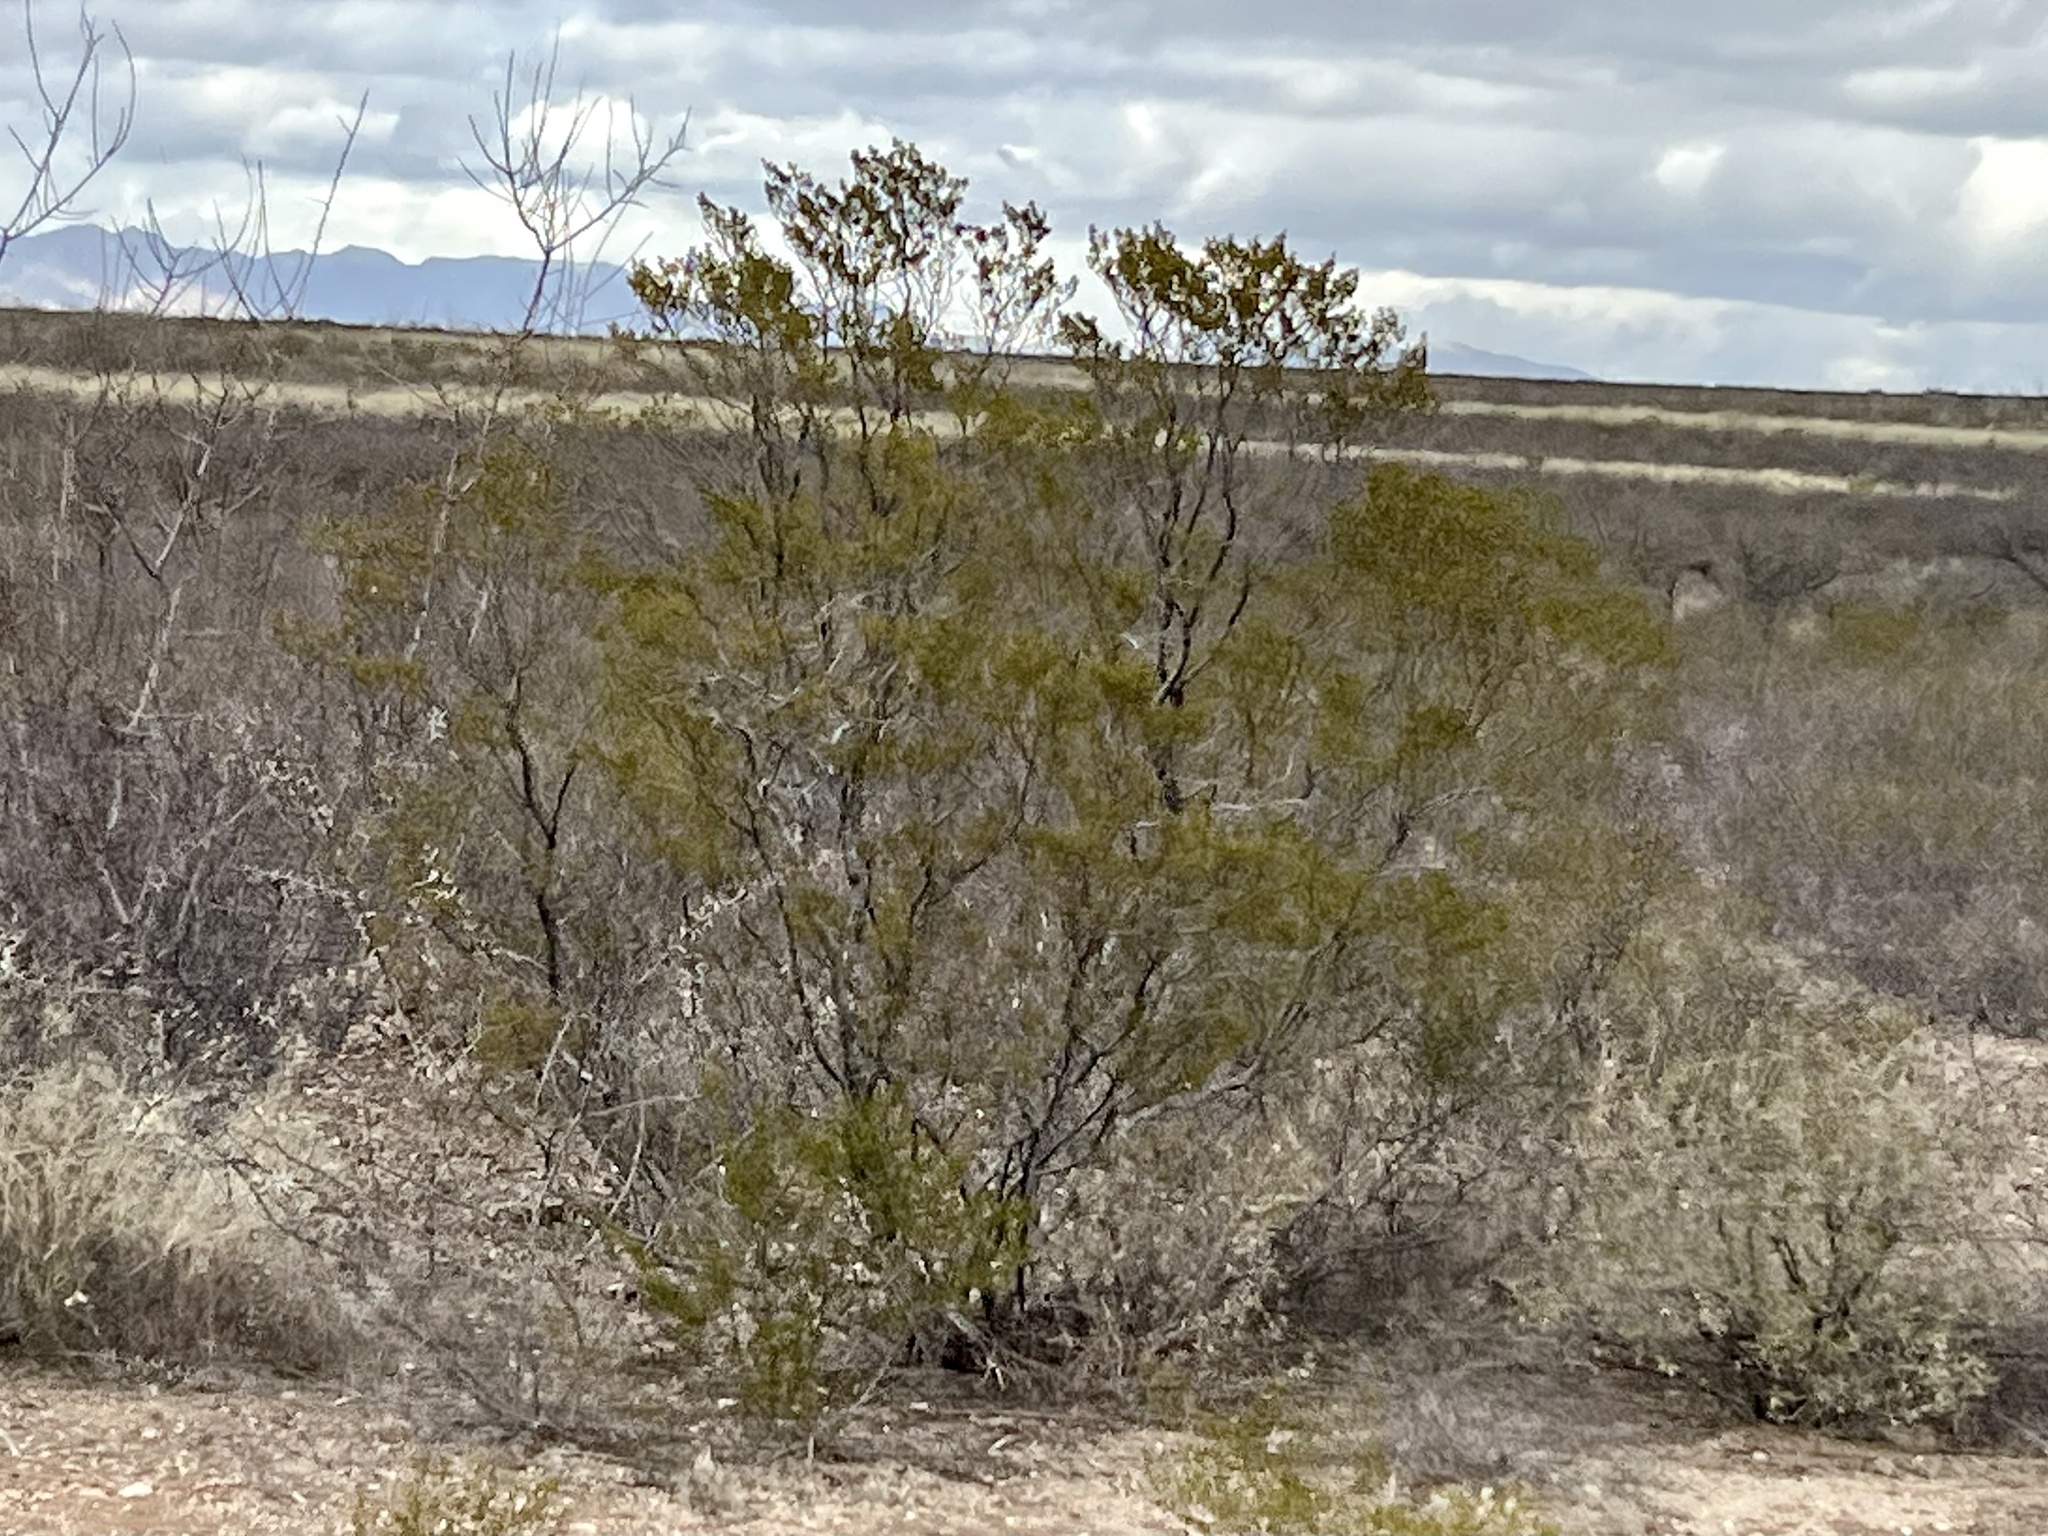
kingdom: Plantae
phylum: Tracheophyta
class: Magnoliopsida
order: Zygophyllales
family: Zygophyllaceae
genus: Larrea
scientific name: Larrea tridentata
